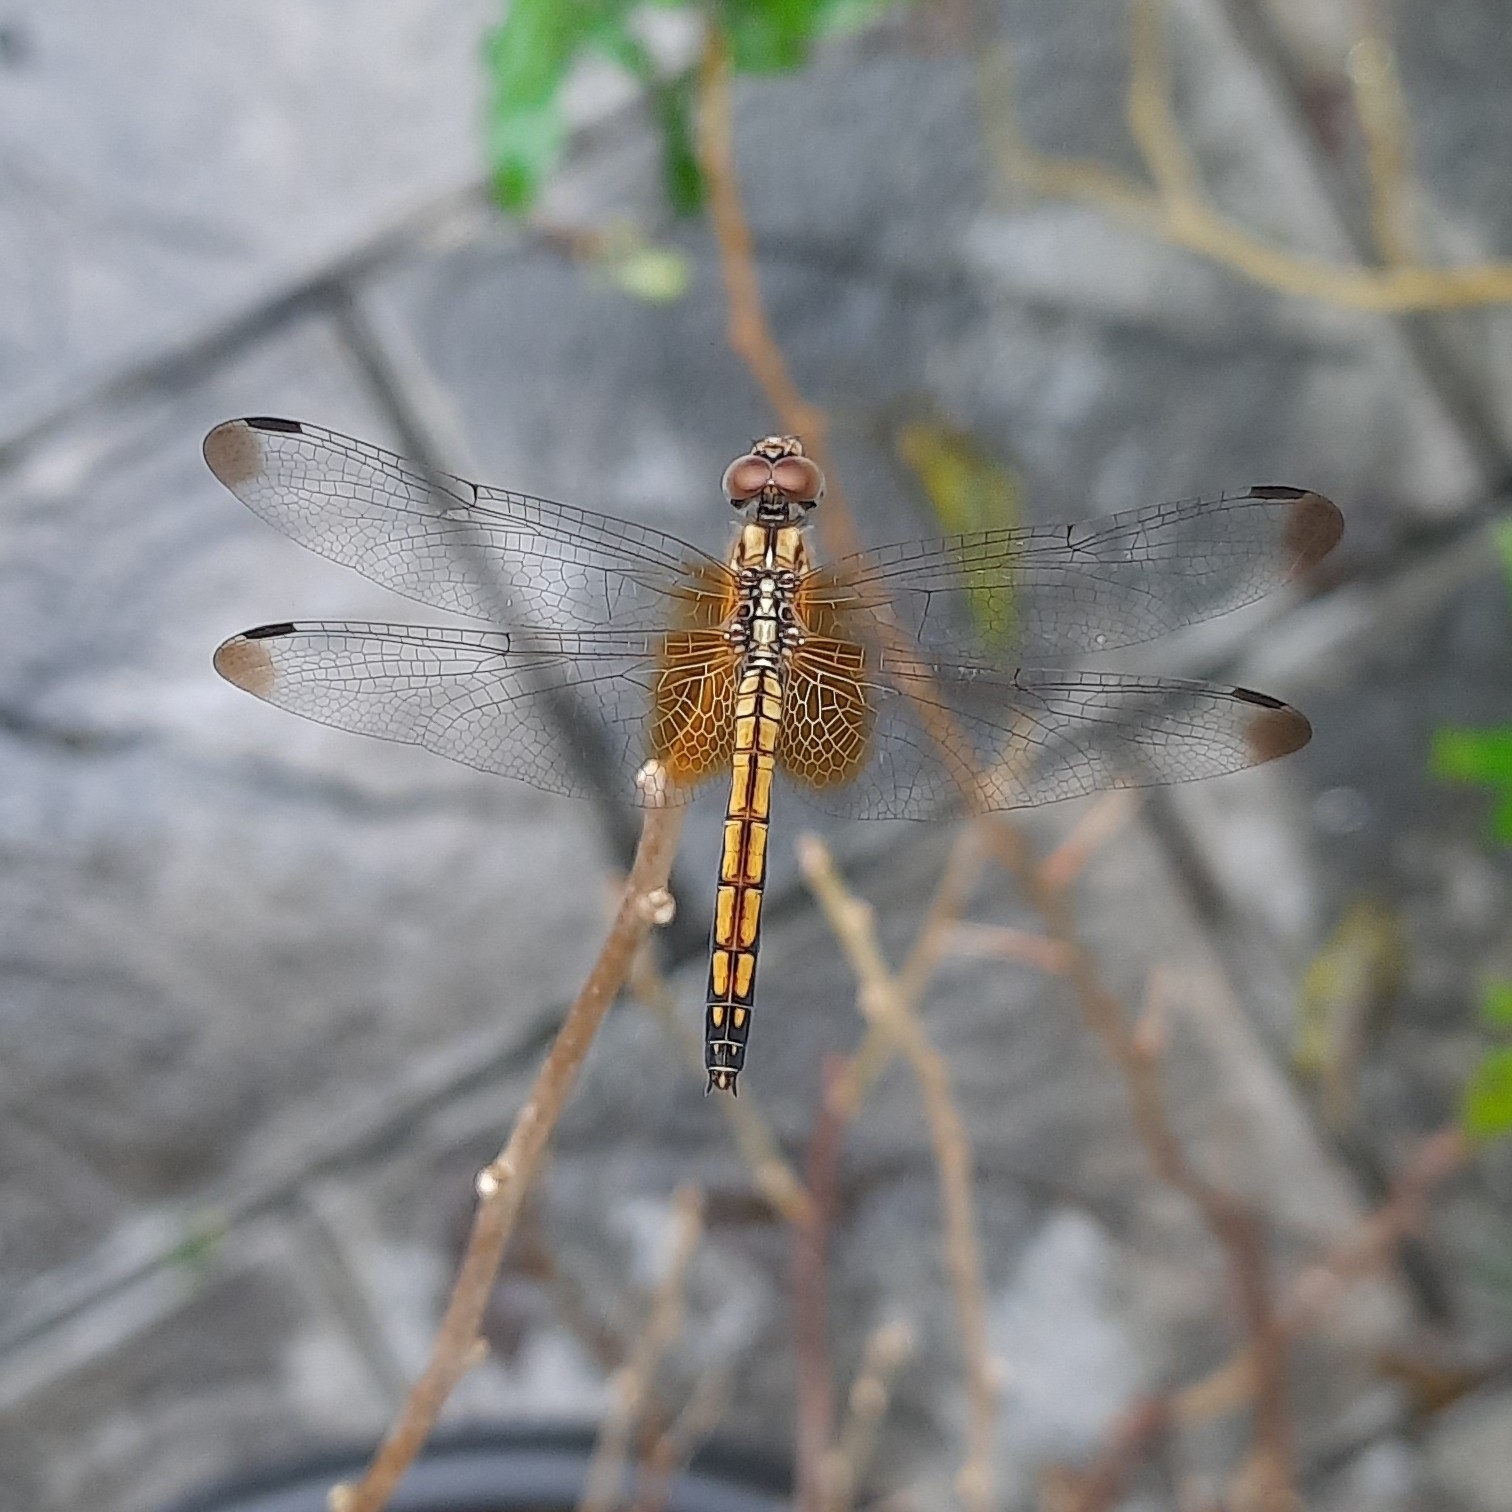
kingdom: Animalia
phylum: Arthropoda
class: Insecta
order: Odonata
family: Libellulidae
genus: Trithemis
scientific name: Trithemis aurora
